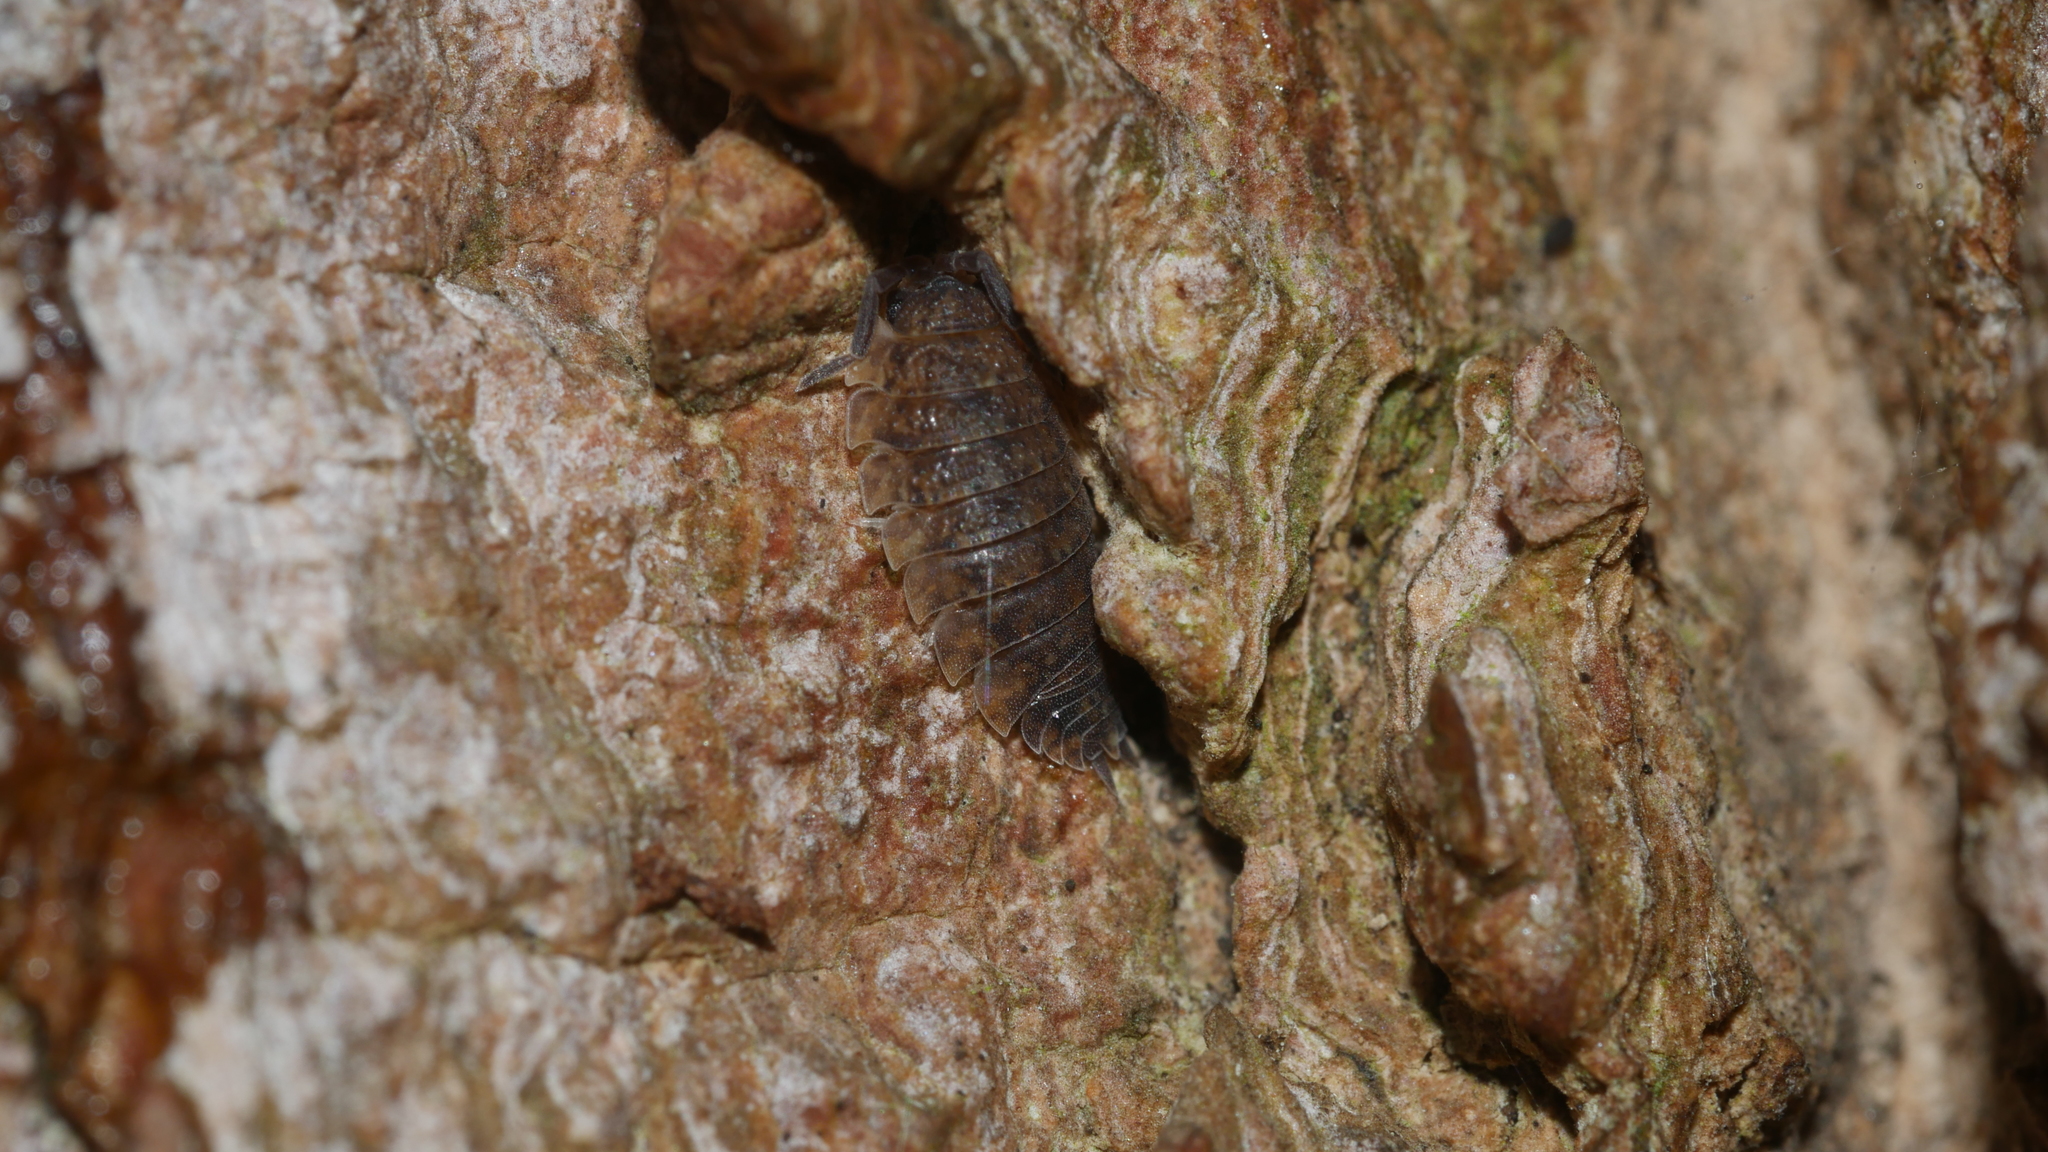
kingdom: Animalia
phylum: Arthropoda
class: Malacostraca
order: Isopoda
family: Porcellionidae
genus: Porcellio
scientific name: Porcellio scaber
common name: Common rough woodlouse
